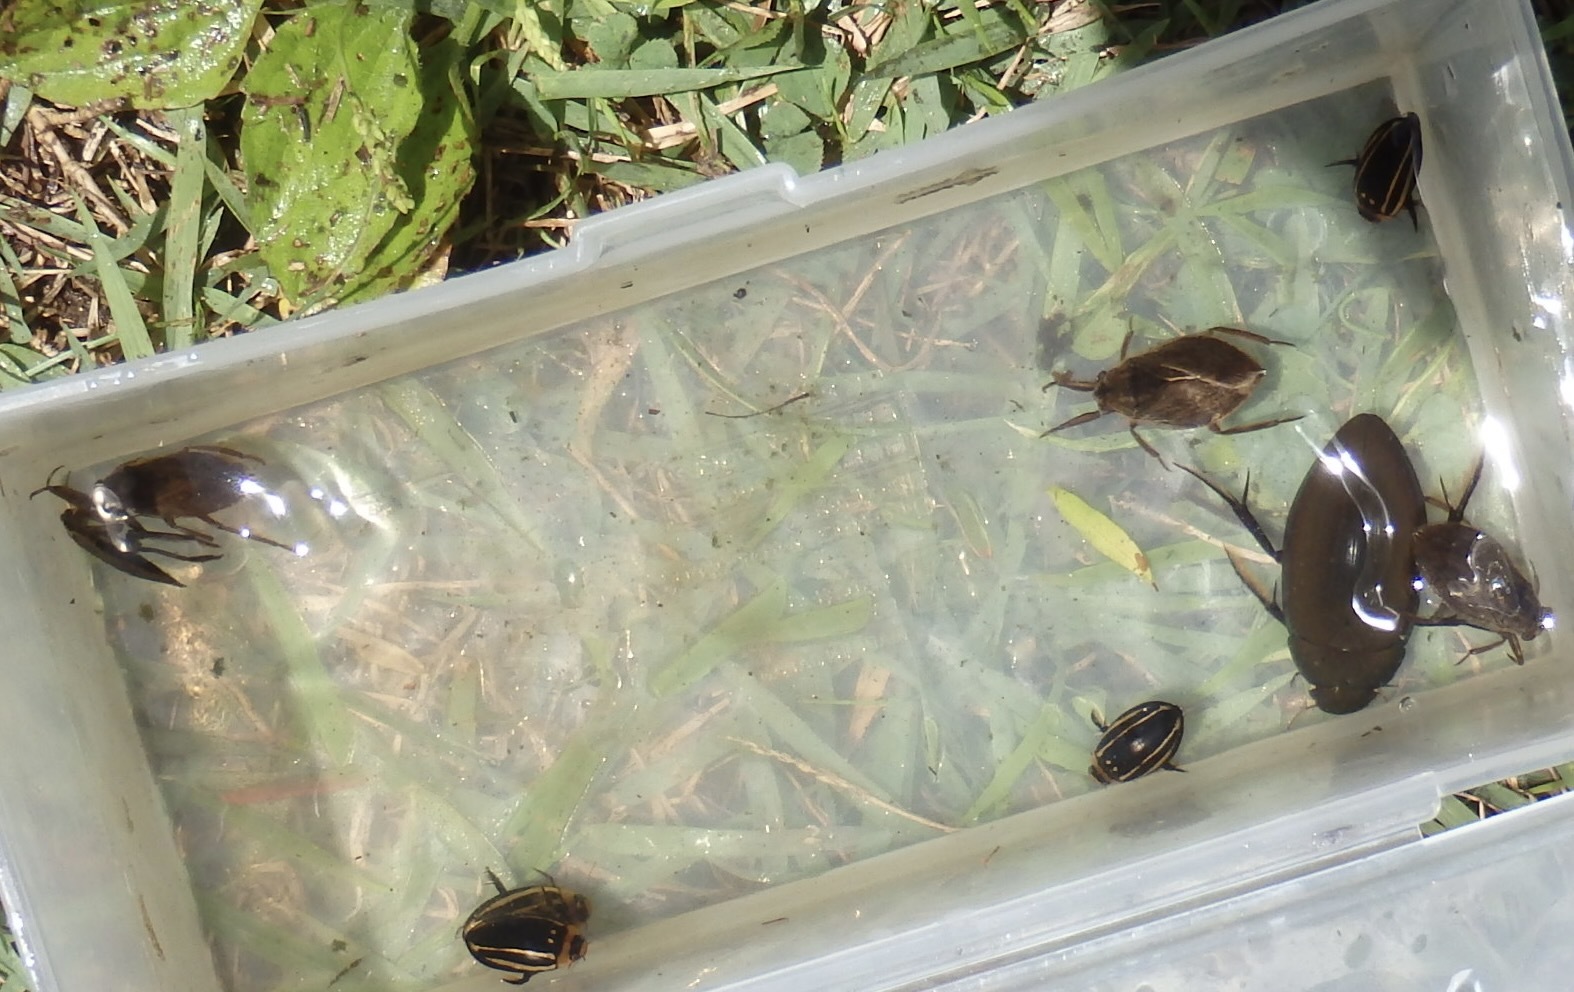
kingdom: Animalia
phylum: Arthropoda
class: Insecta
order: Coleoptera
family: Dytiscidae
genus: Hydaticus
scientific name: Hydaticus bowringii
